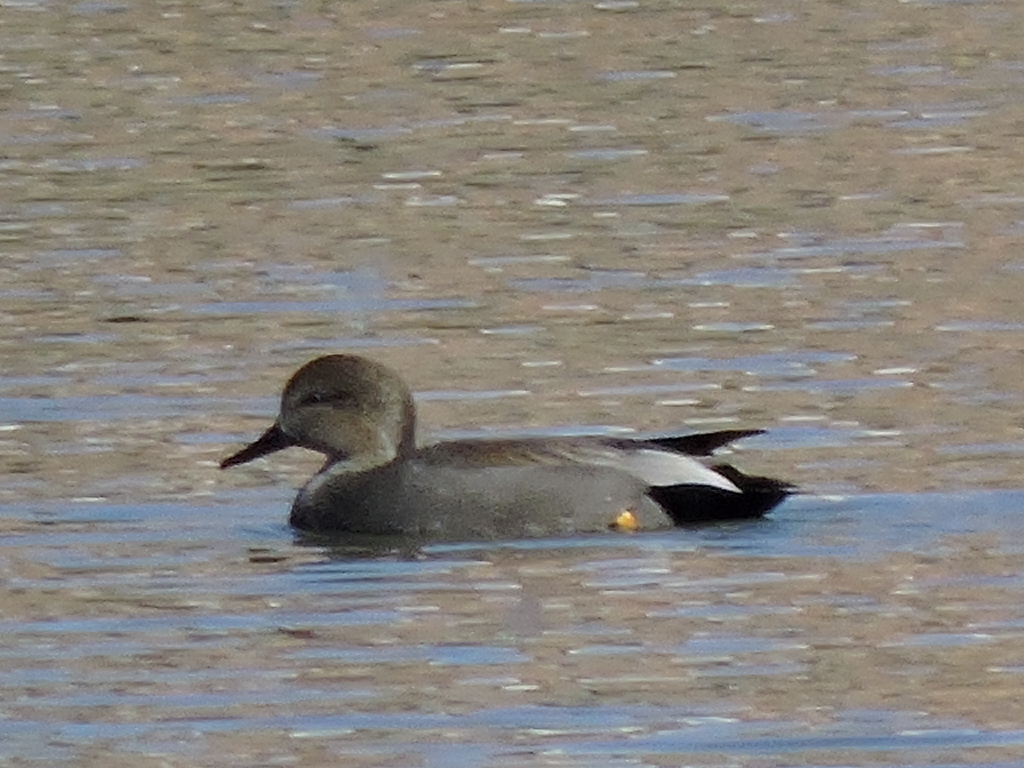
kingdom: Animalia
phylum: Chordata
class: Aves
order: Anseriformes
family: Anatidae
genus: Mareca
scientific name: Mareca strepera
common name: Gadwall
